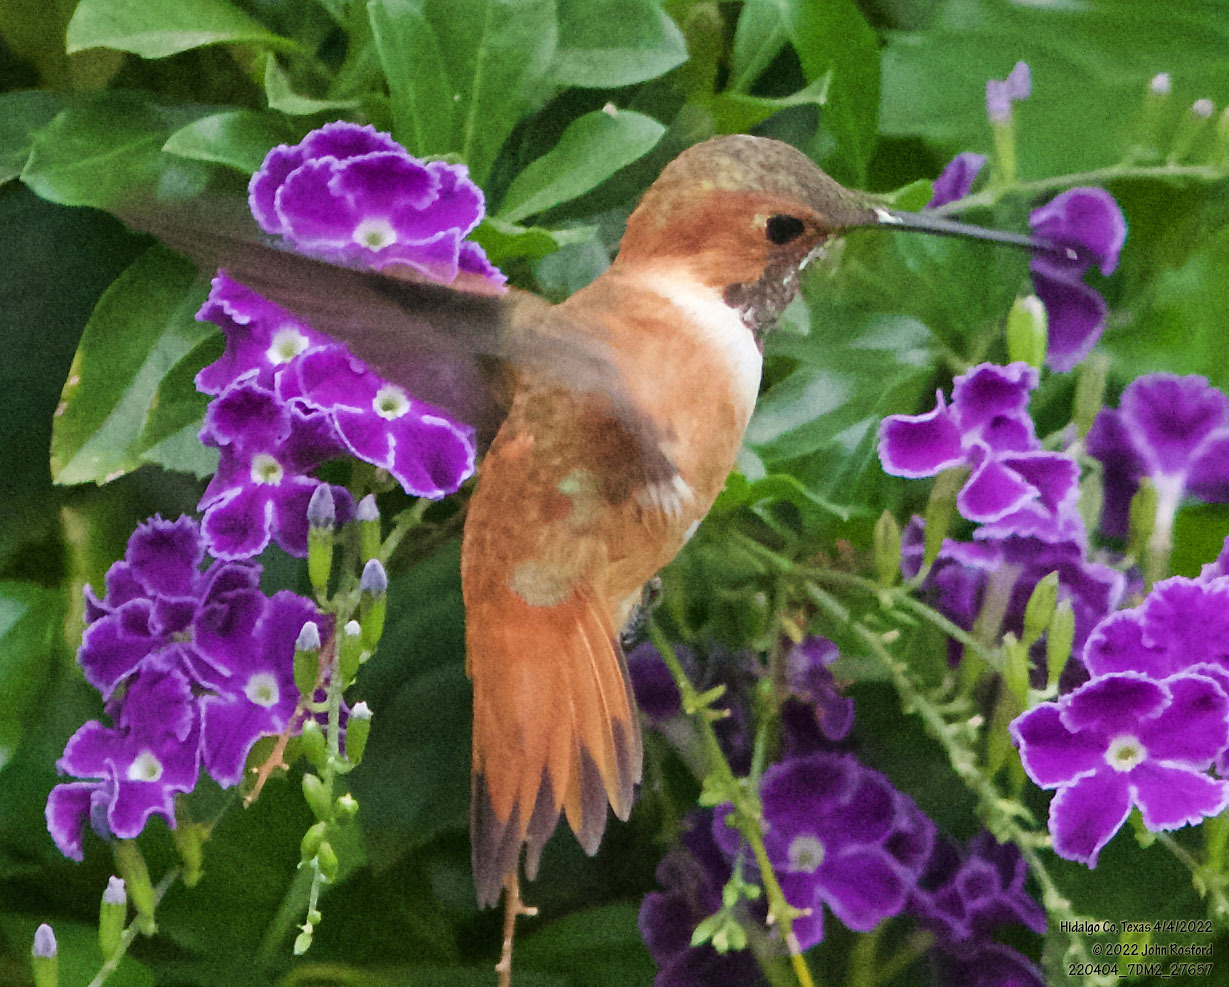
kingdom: Animalia
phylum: Chordata
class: Aves
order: Apodiformes
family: Trochilidae
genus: Selasphorus
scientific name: Selasphorus rufus
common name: Rufous hummingbird
